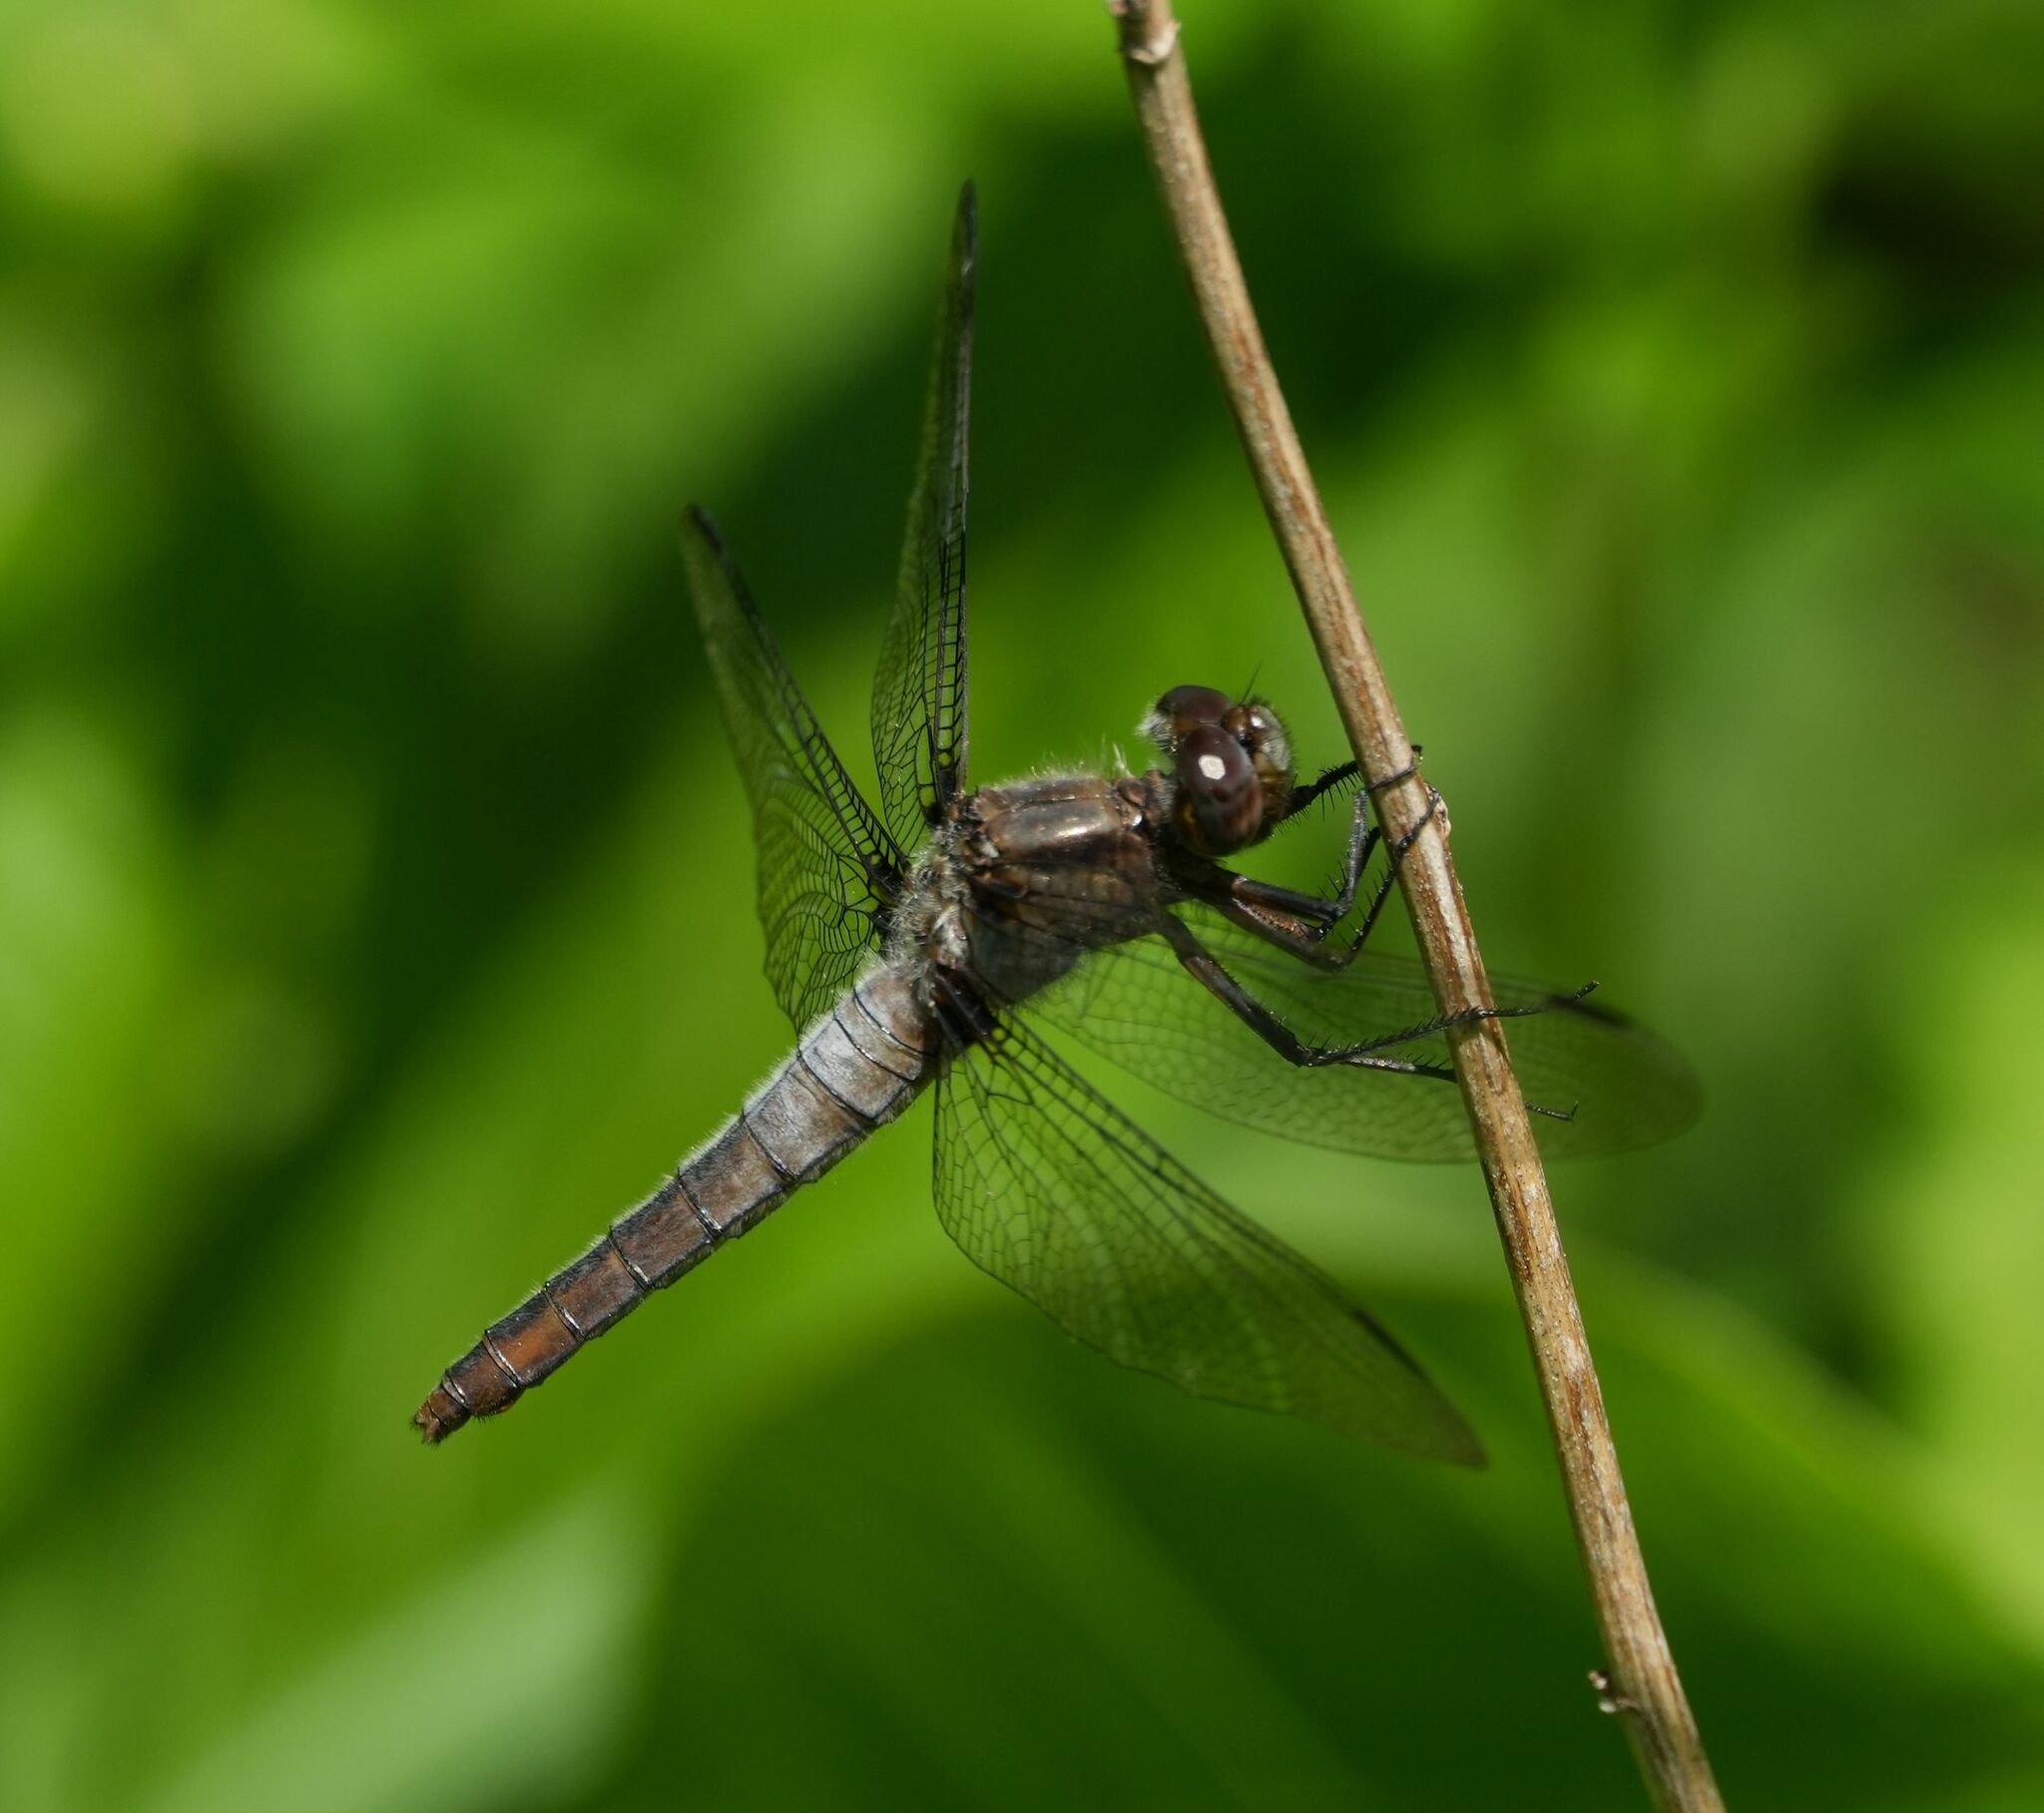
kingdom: Animalia
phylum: Arthropoda
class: Insecta
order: Odonata
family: Libellulidae
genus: Ladona
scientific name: Ladona julia
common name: Chalk-fronted corporal
